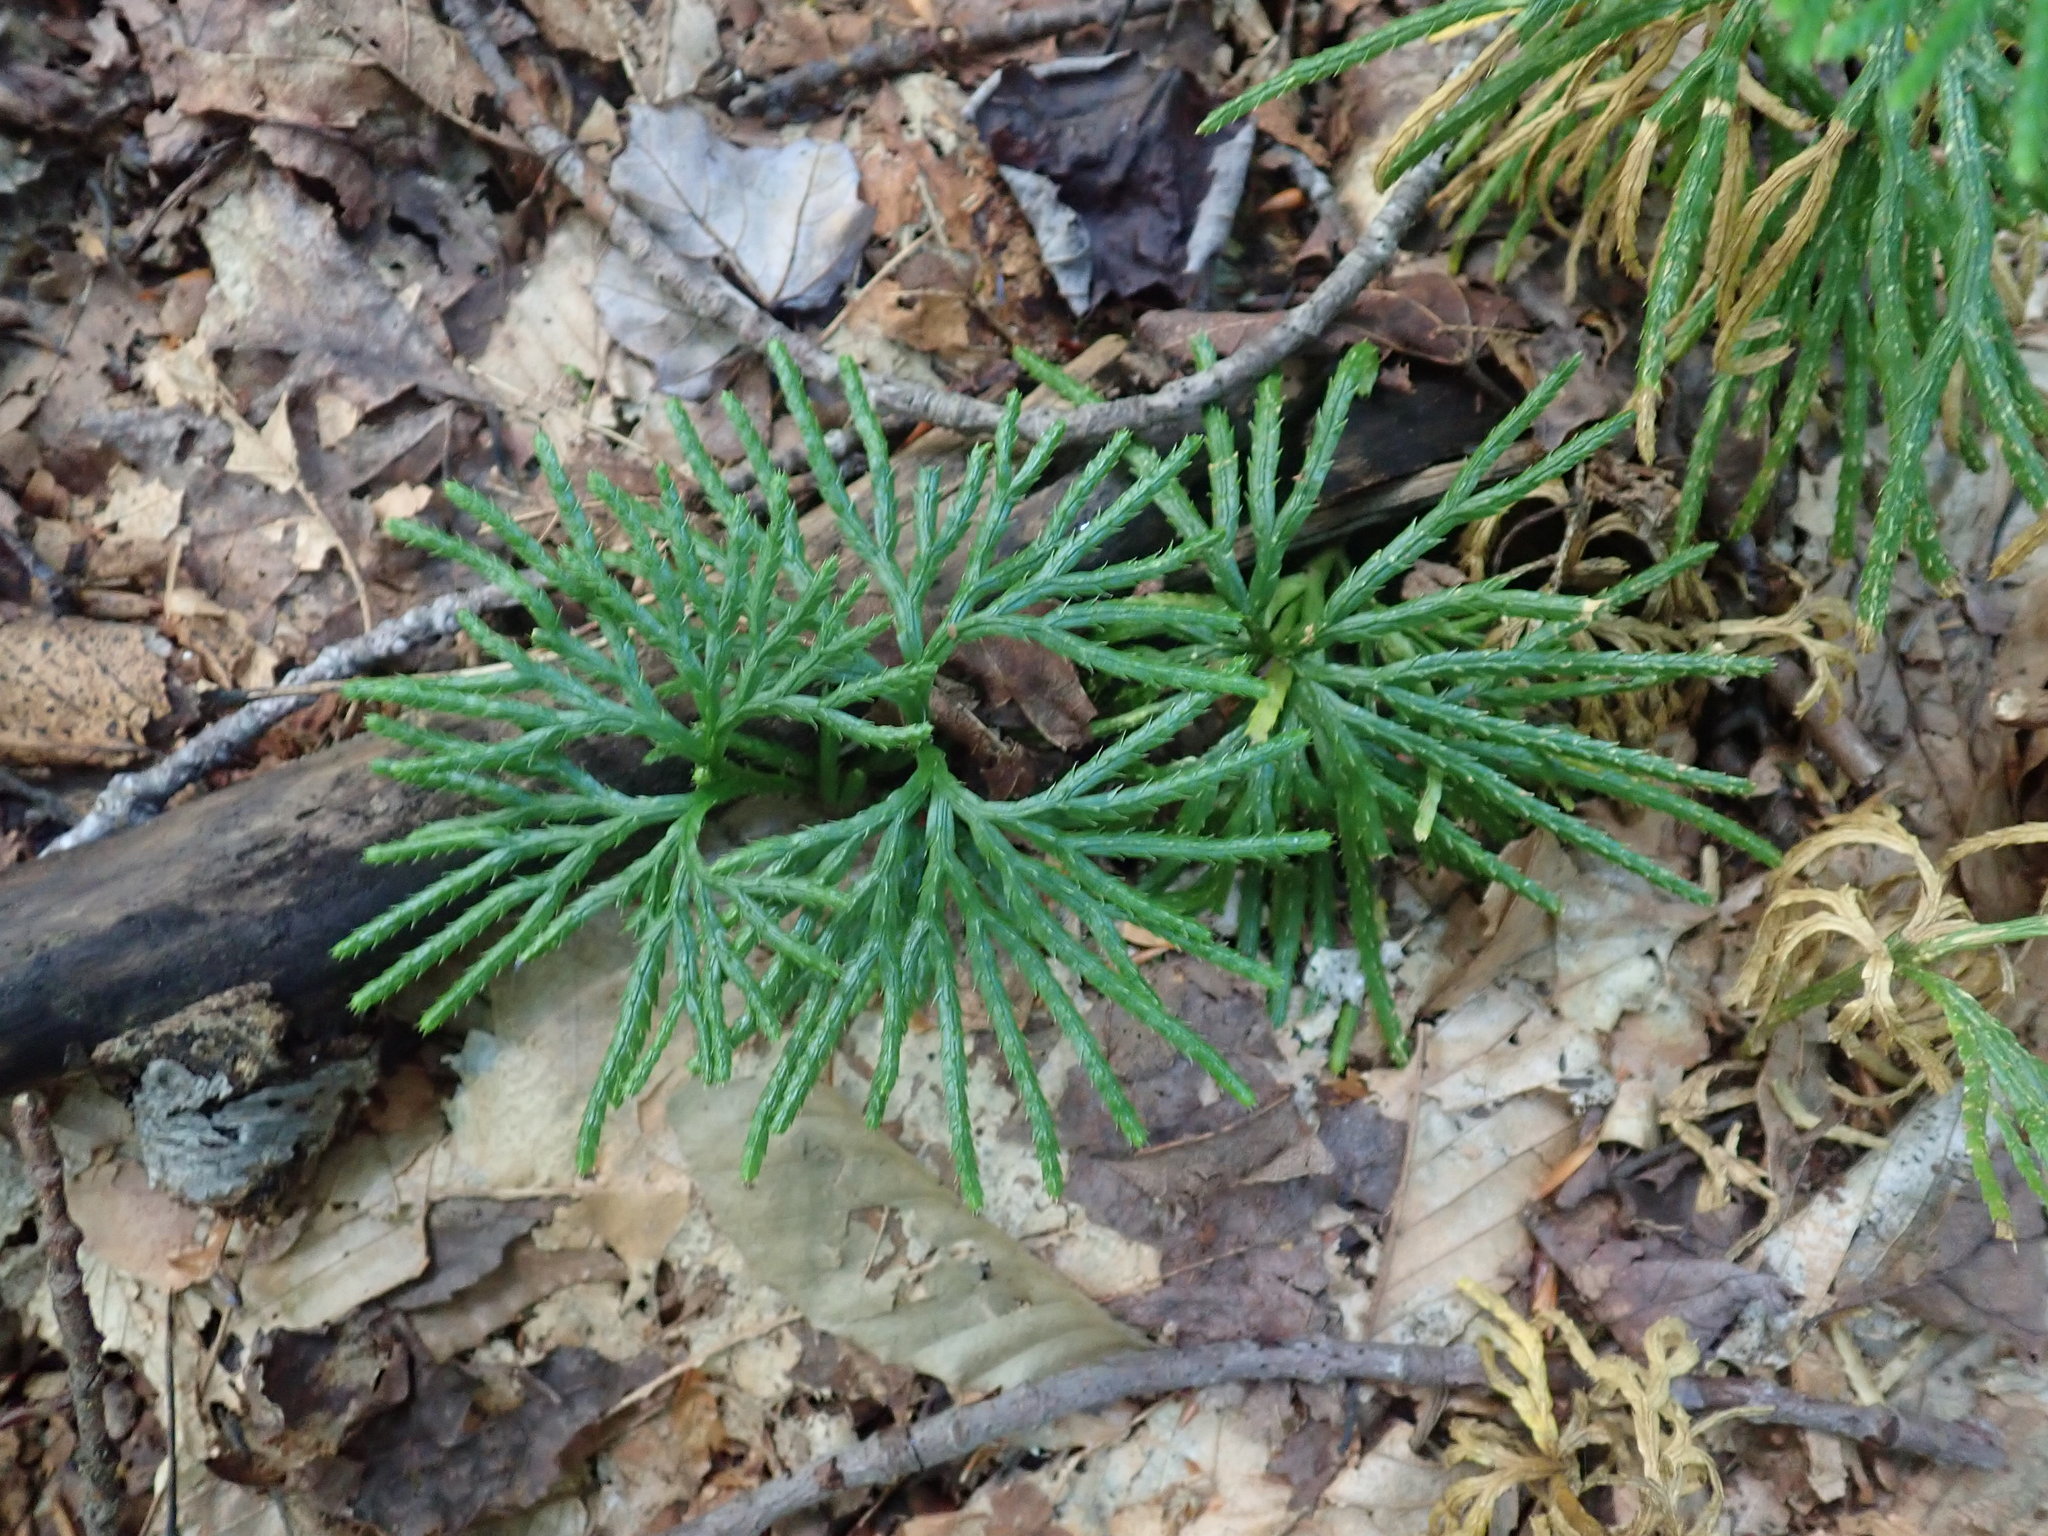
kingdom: Plantae
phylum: Tracheophyta
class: Lycopodiopsida
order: Lycopodiales
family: Lycopodiaceae
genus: Diphasiastrum
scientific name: Diphasiastrum digitatum
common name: Southern running-pine
